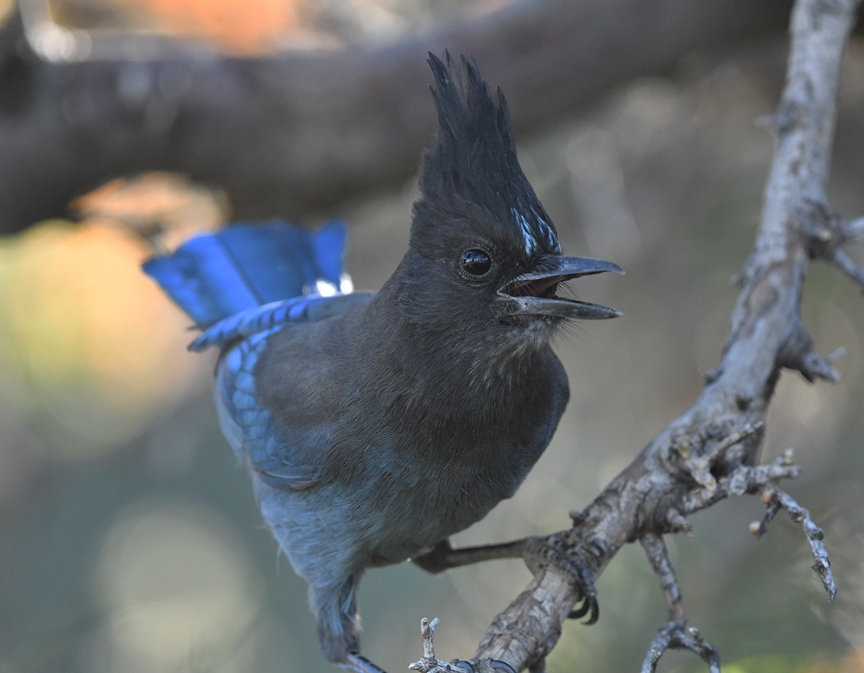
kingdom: Animalia
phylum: Chordata
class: Aves
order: Passeriformes
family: Corvidae
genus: Cyanocitta
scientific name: Cyanocitta stelleri
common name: Steller's jay
